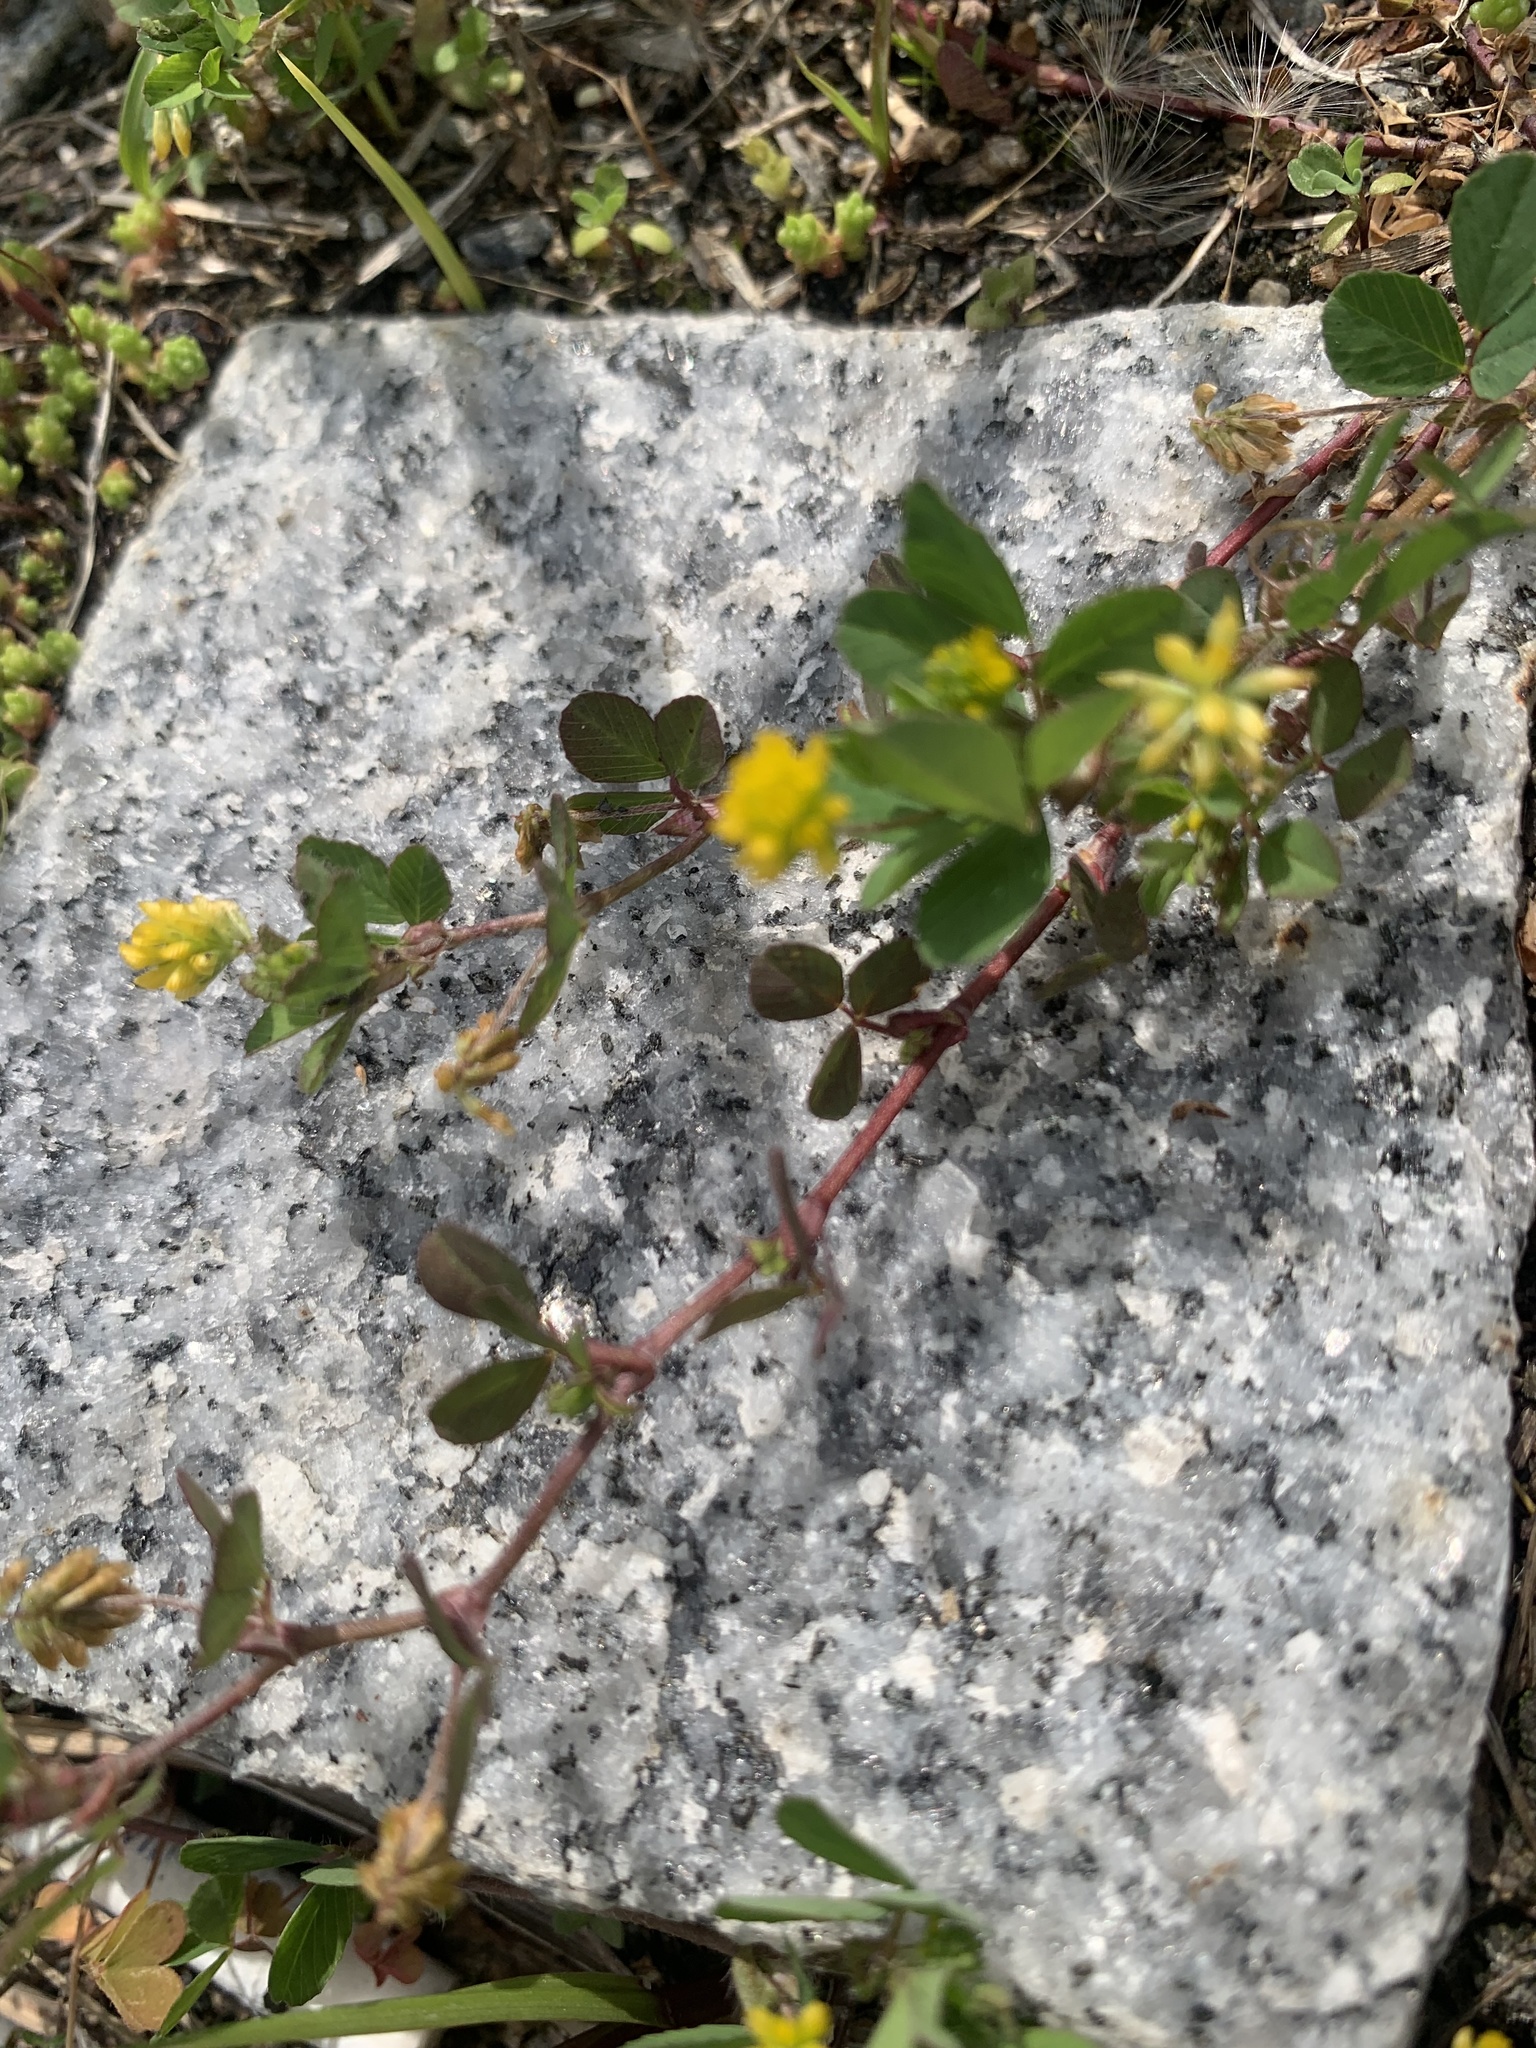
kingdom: Plantae
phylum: Tracheophyta
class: Magnoliopsida
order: Fabales
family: Fabaceae
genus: Trifolium
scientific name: Trifolium dubium
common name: Suckling clover
